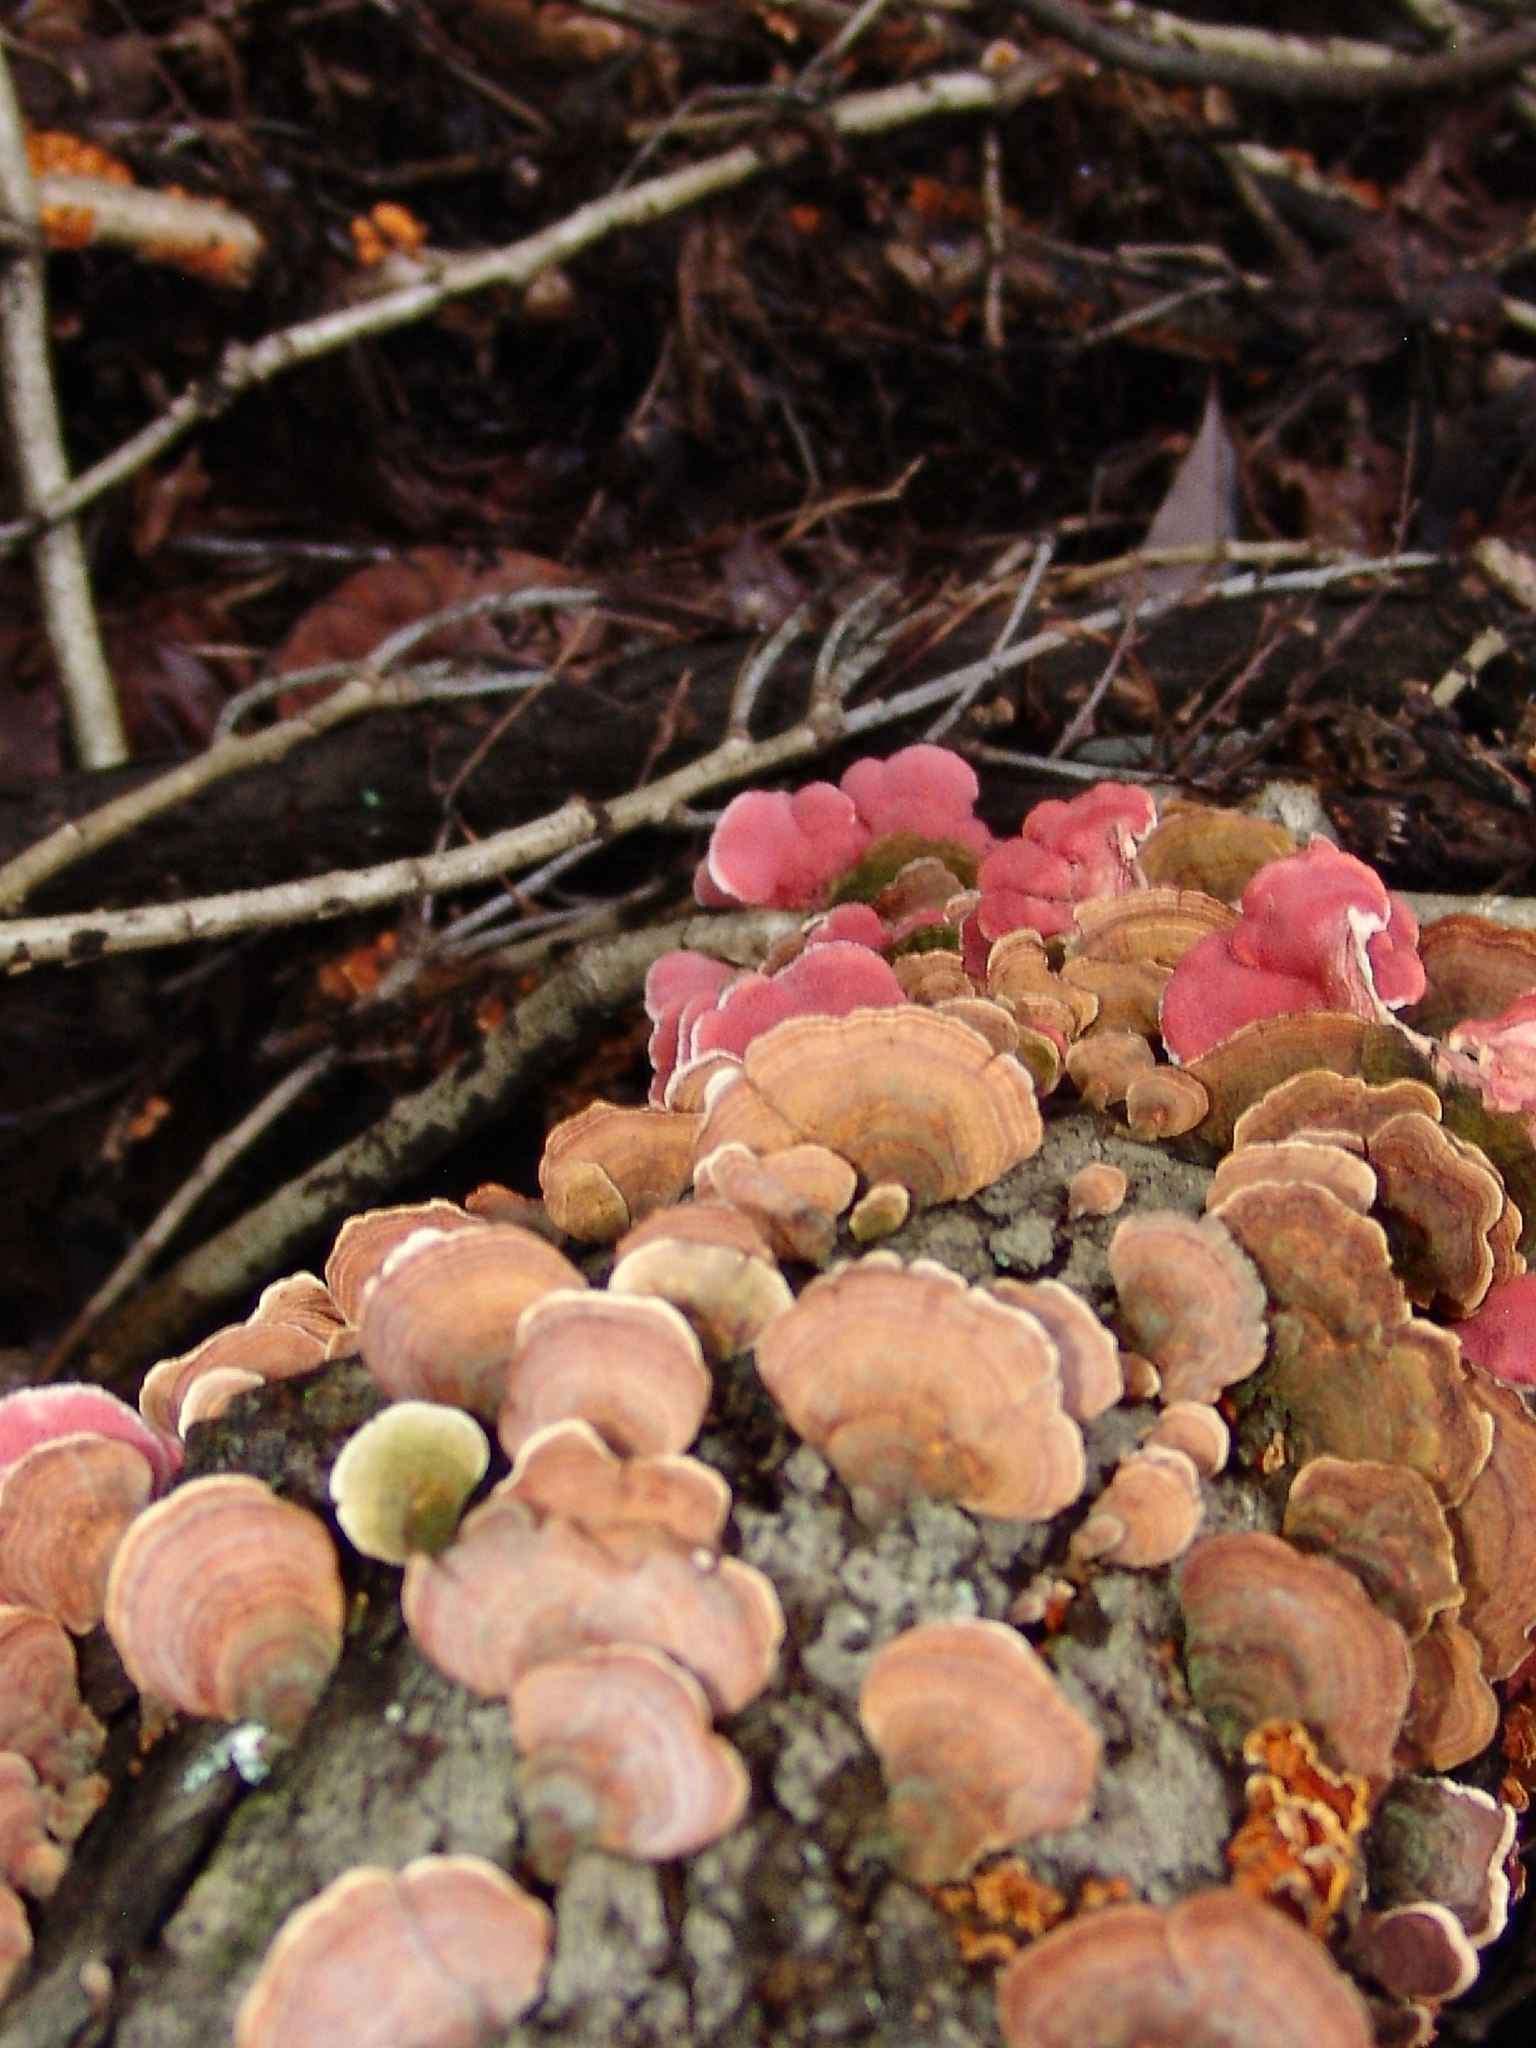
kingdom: Fungi
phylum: Basidiomycota
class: Agaricomycetes
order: Polyporales
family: Irpicaceae
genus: Byssomerulius
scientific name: Byssomerulius incarnatus
